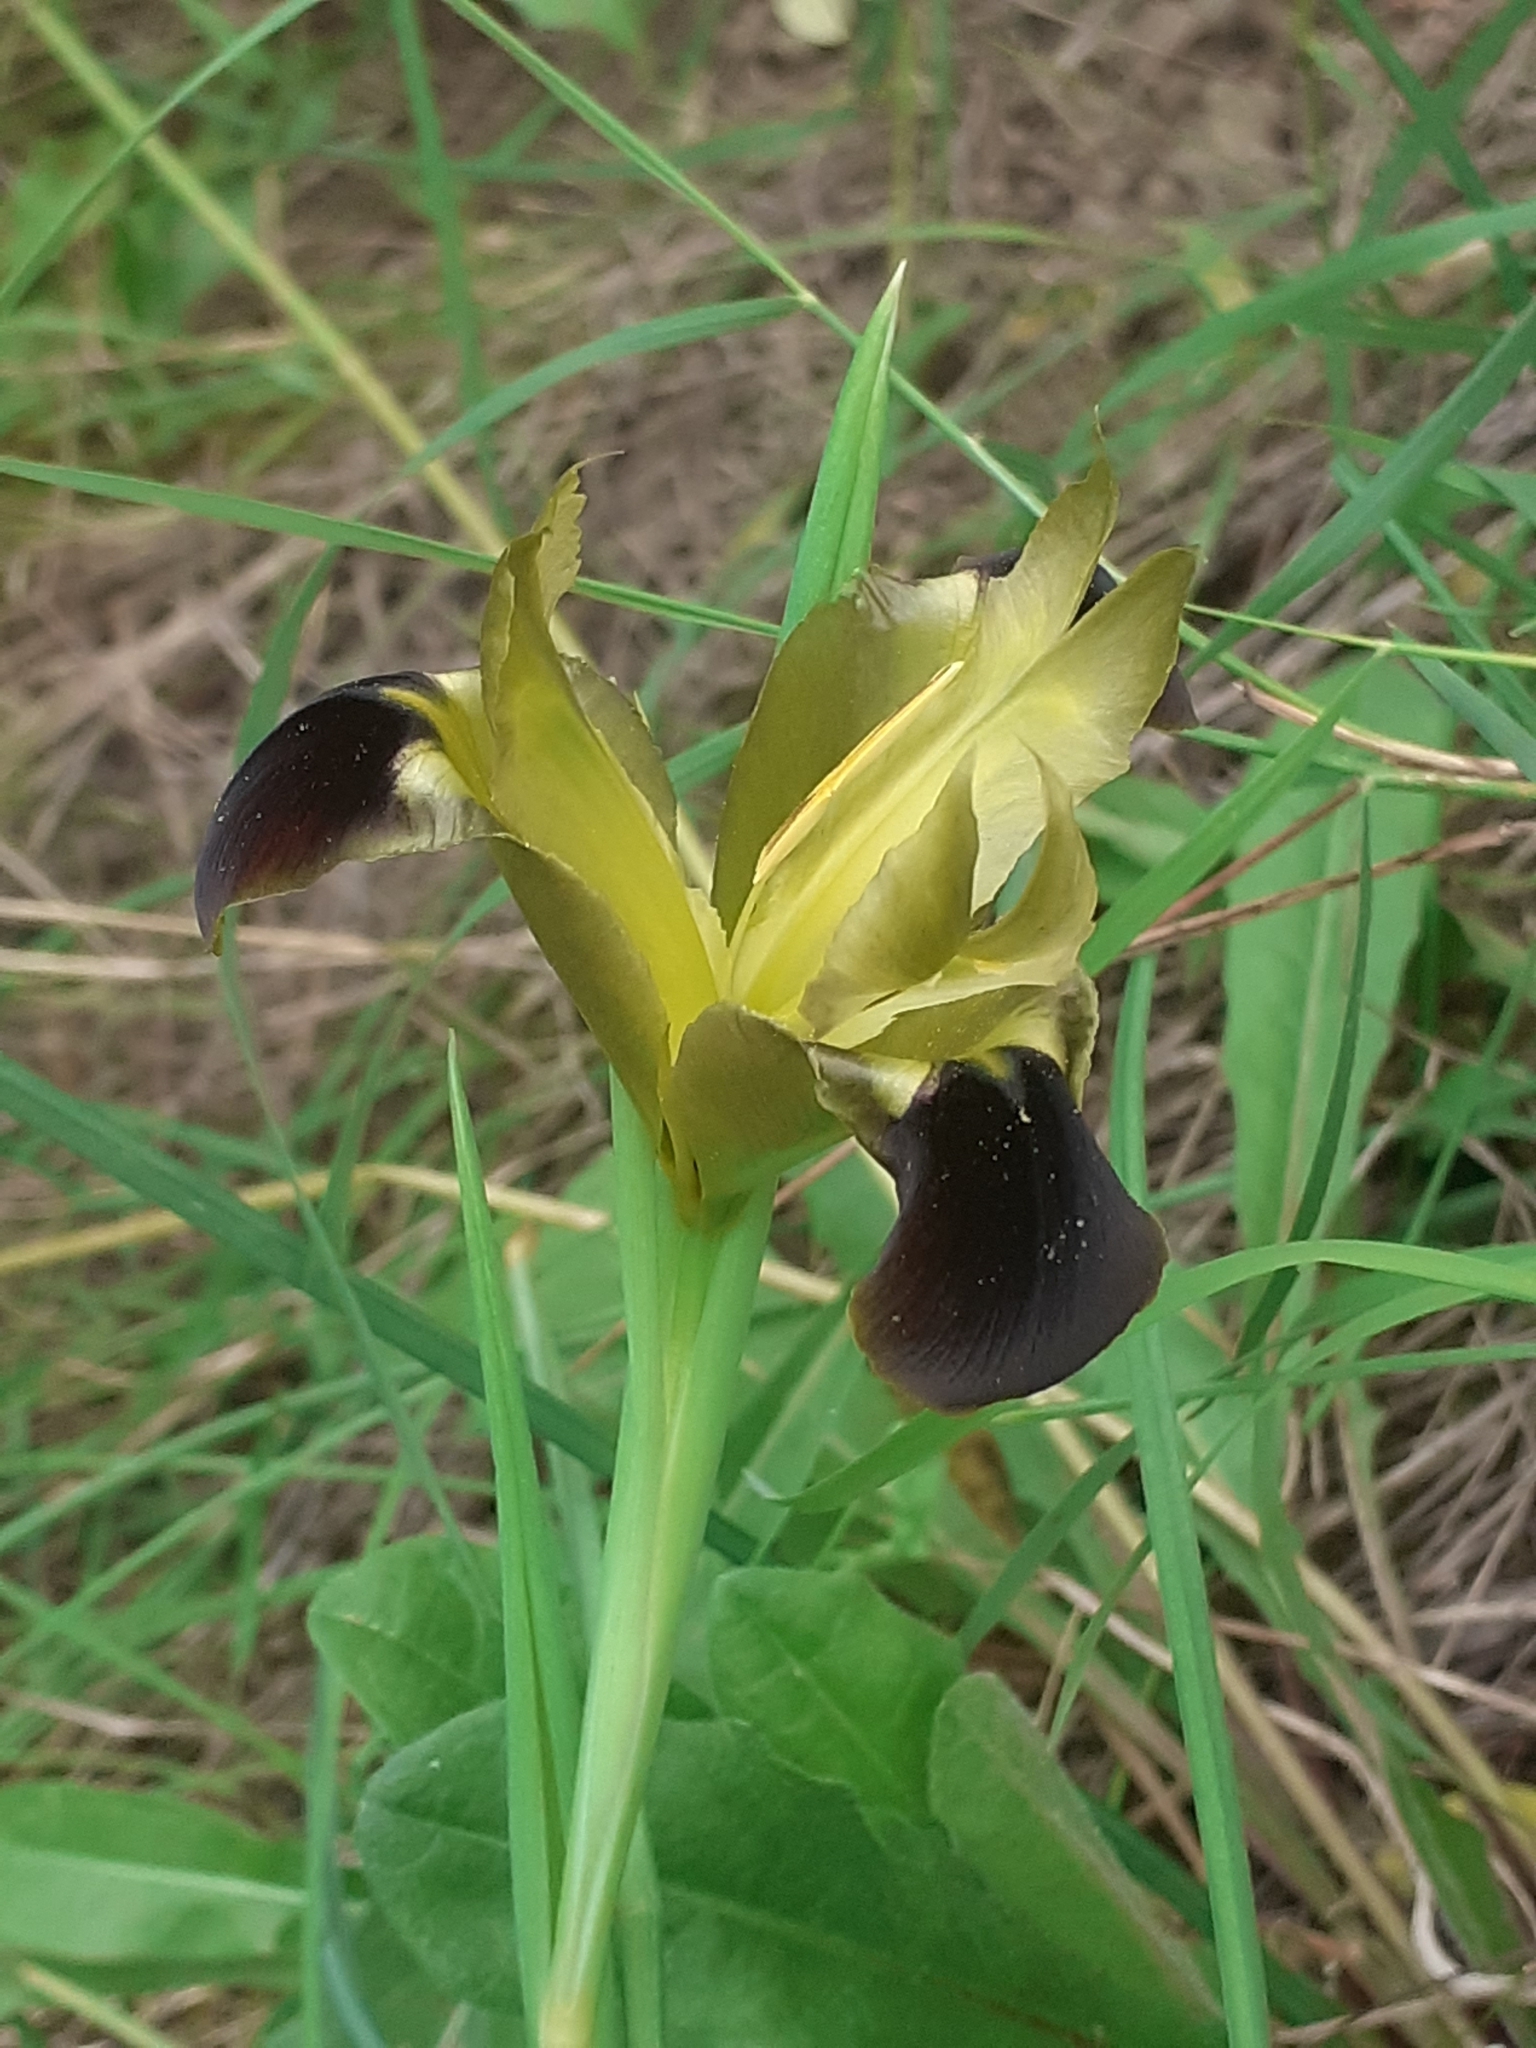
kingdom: Plantae
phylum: Tracheophyta
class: Liliopsida
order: Asparagales
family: Iridaceae
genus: Iris
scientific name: Iris tuberosa
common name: Snake's-head iris
